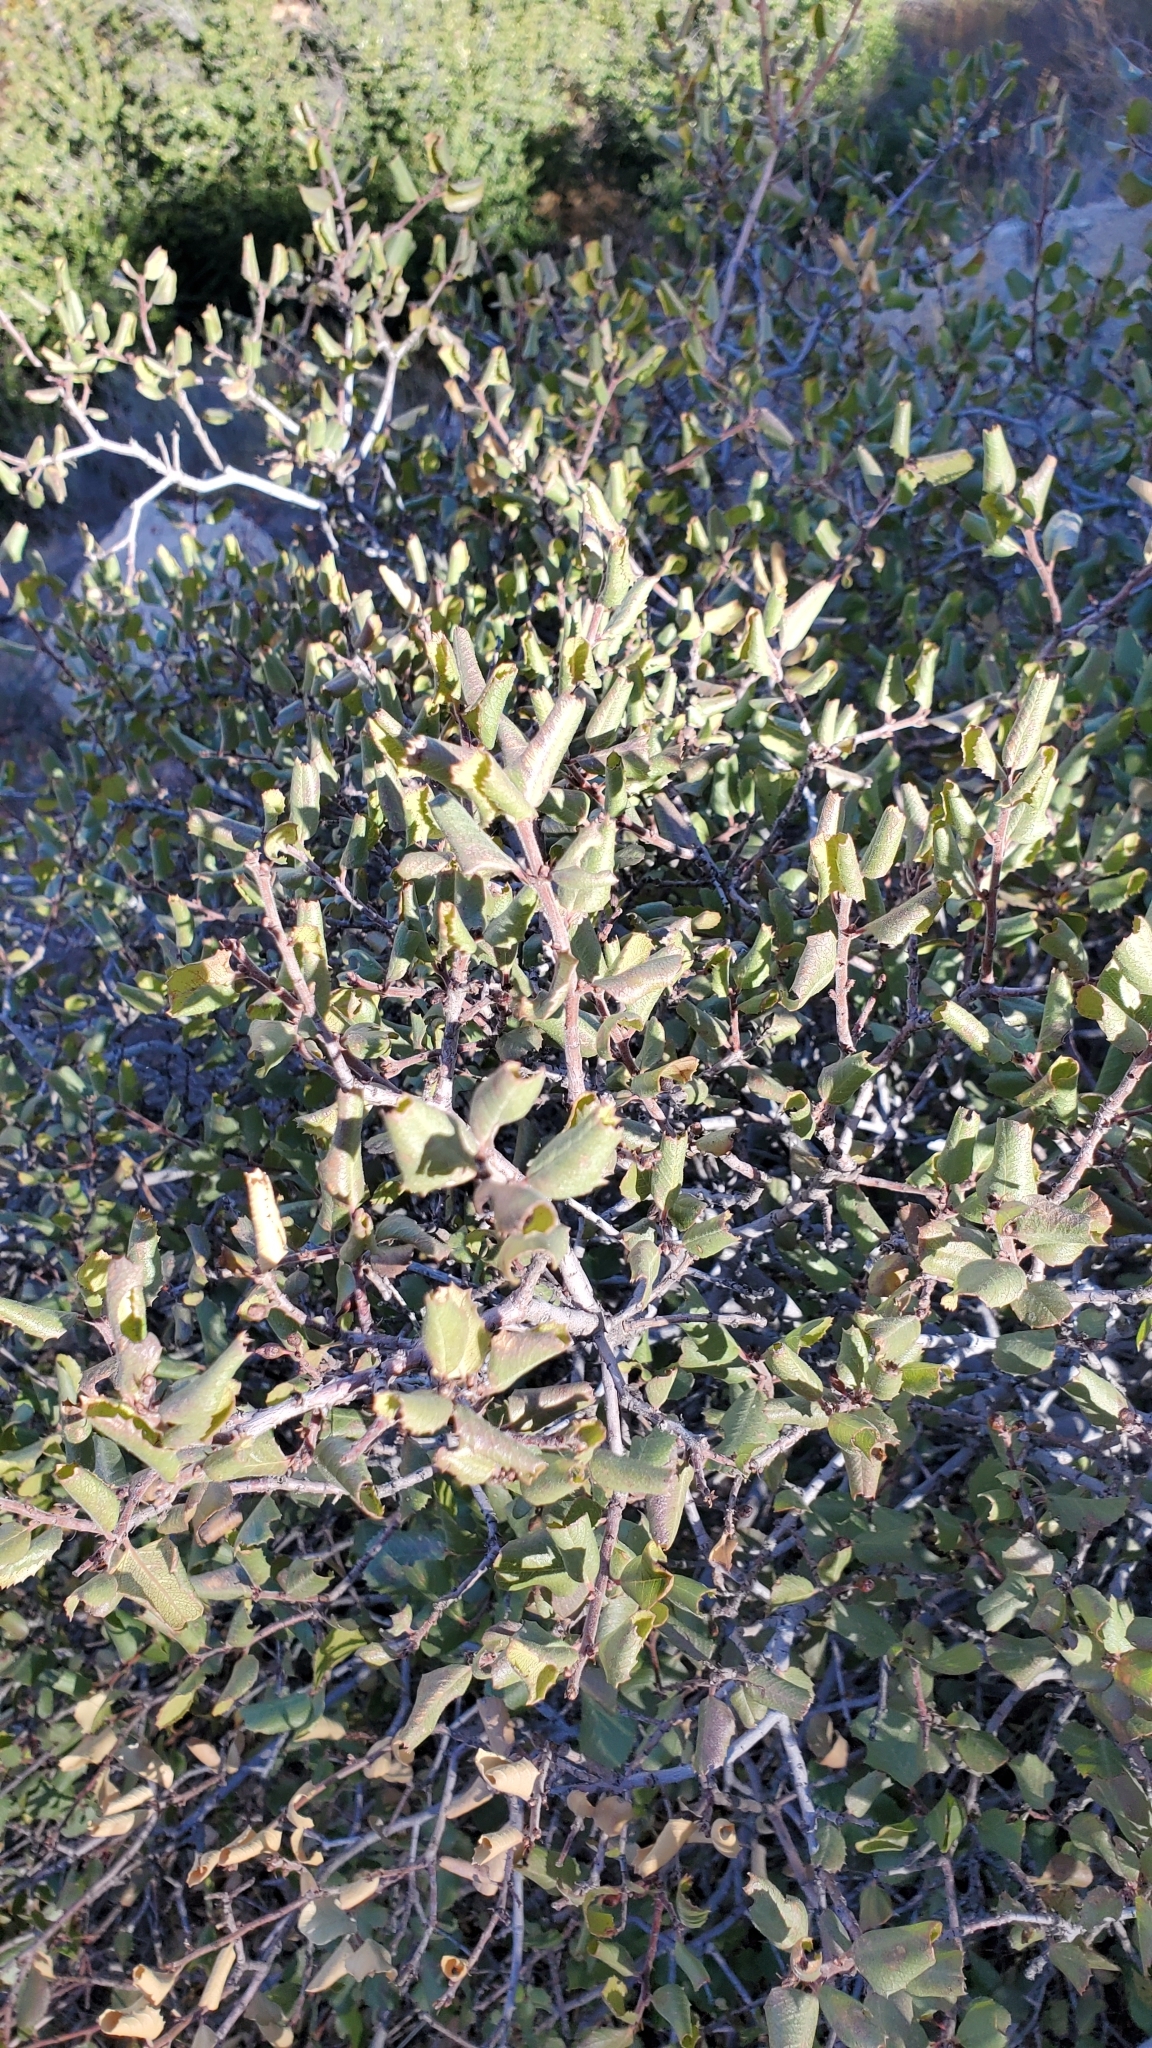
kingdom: Plantae
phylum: Tracheophyta
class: Magnoliopsida
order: Rosales
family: Rhamnaceae
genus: Endotropis
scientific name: Endotropis crocea
